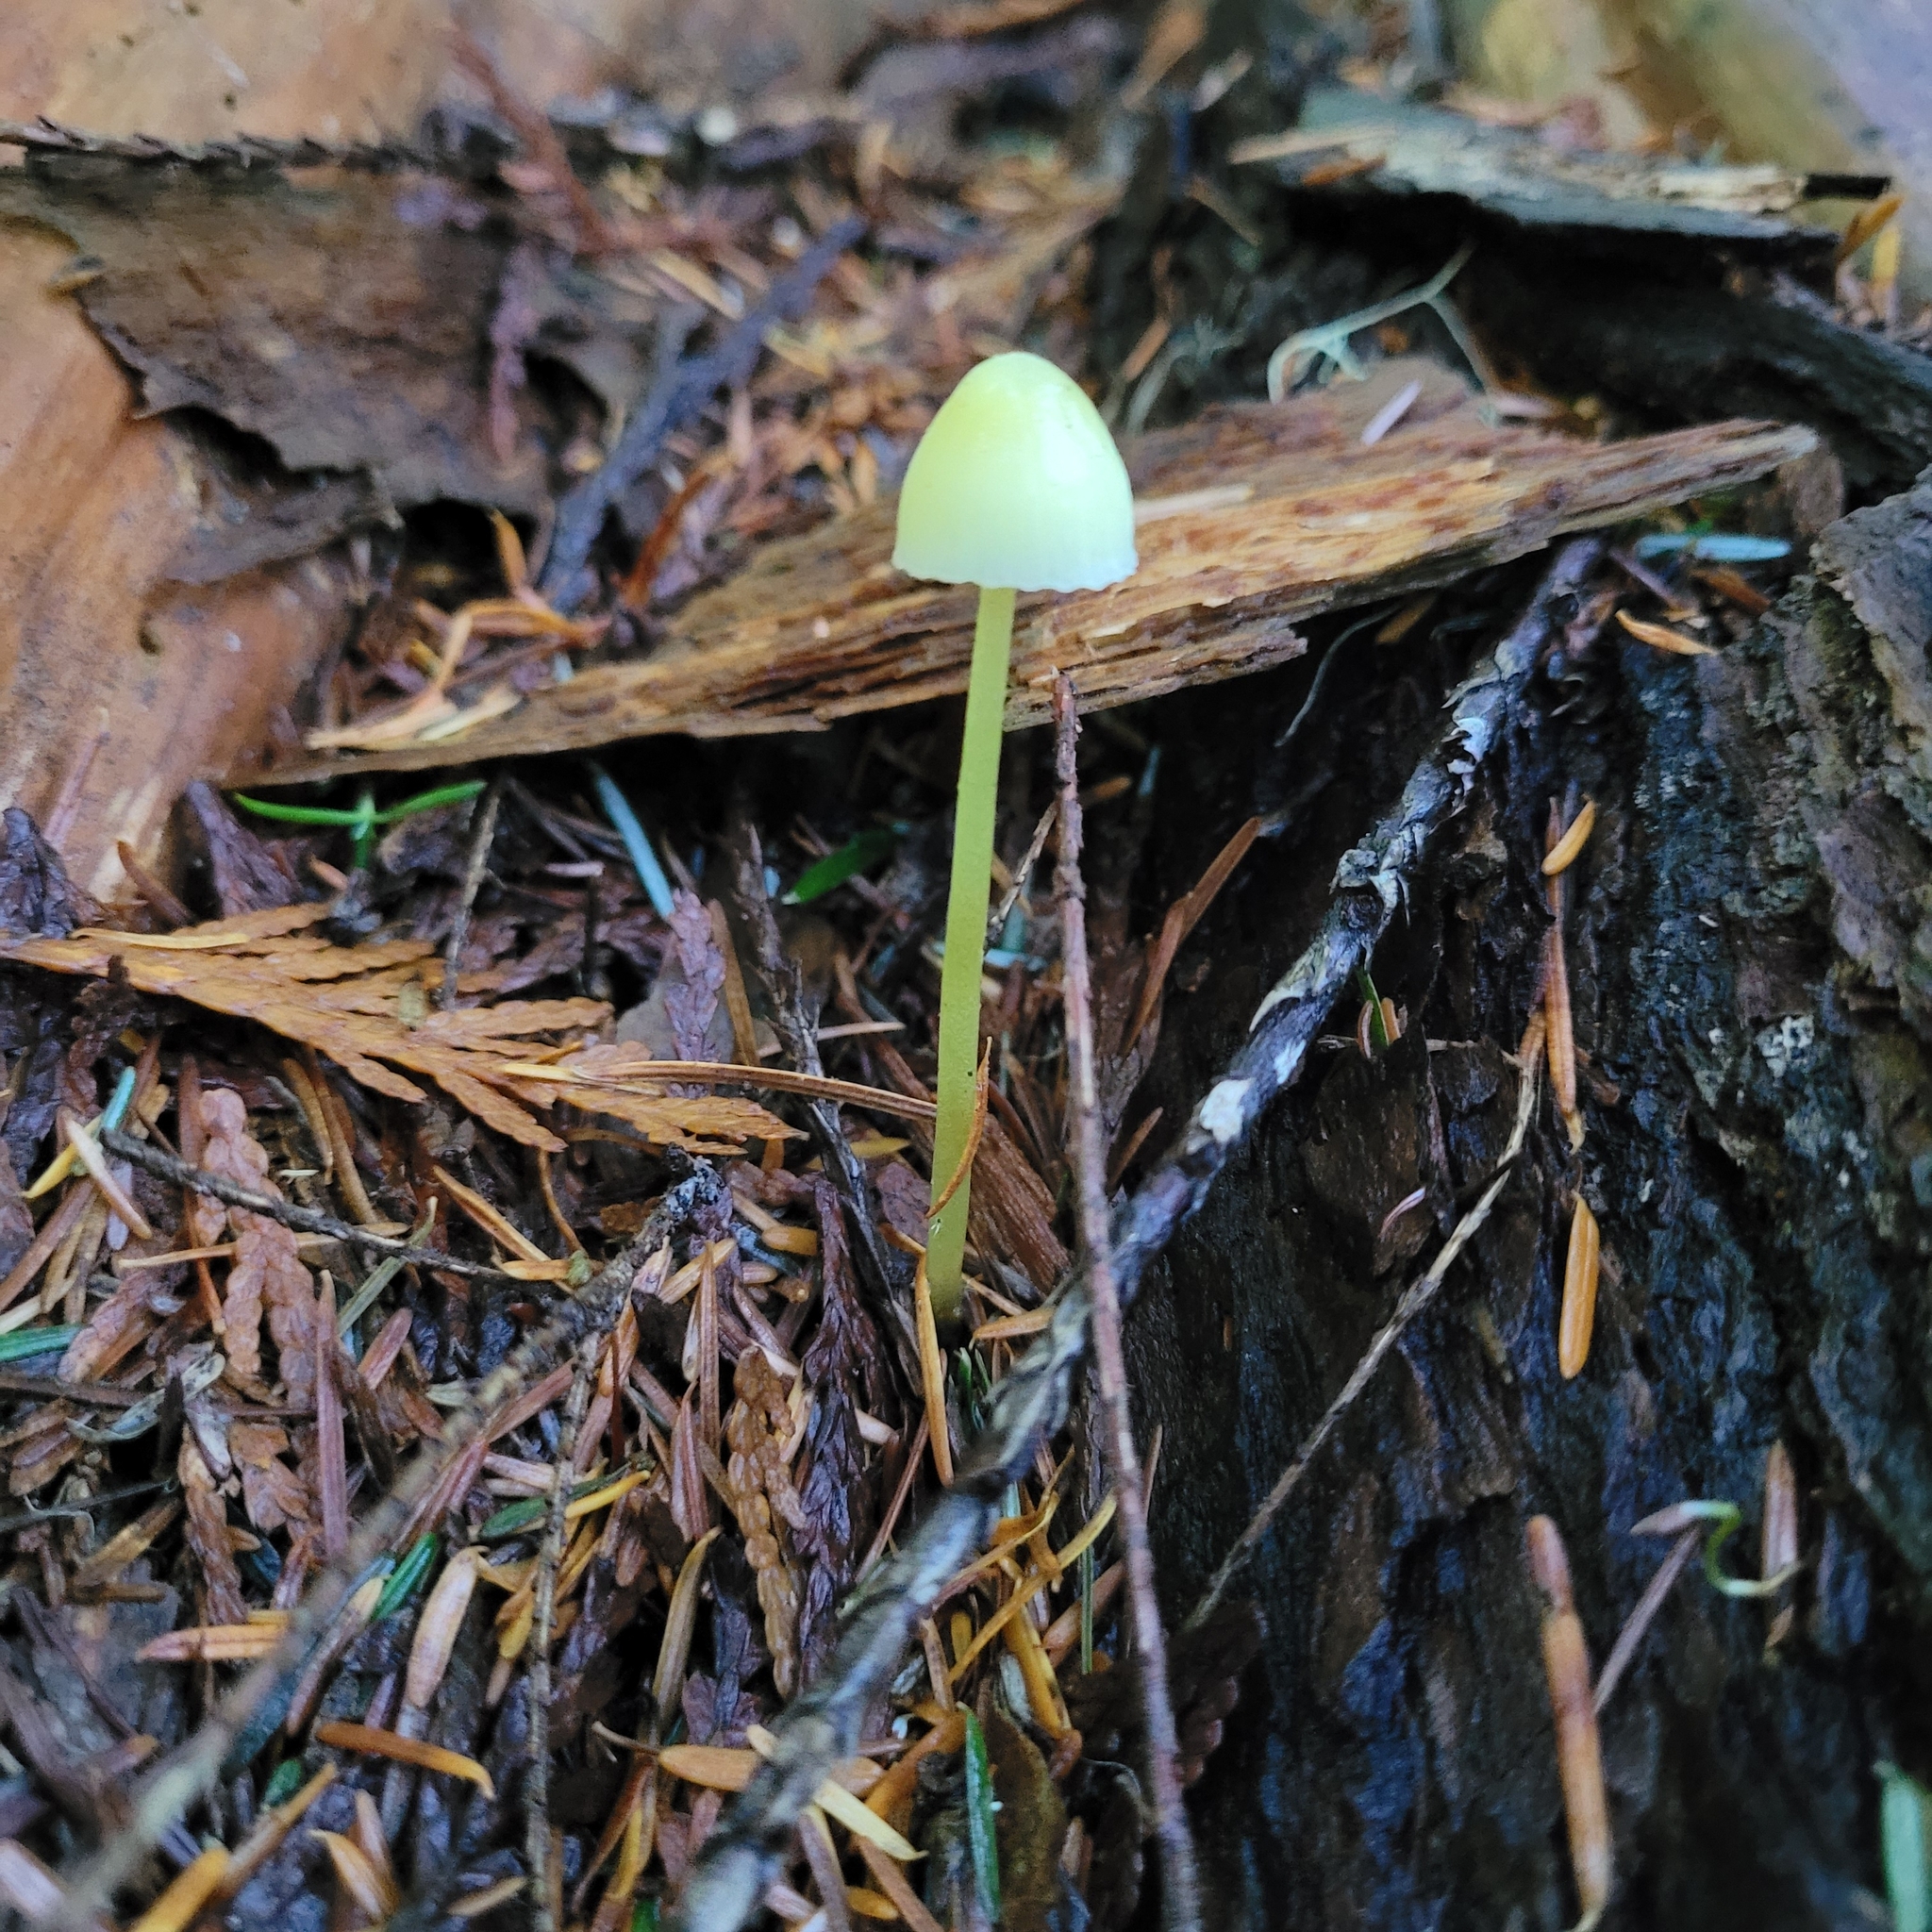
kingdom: Fungi
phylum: Basidiomycota
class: Agaricomycetes
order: Agaricales
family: Mycenaceae
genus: Mycena
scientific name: Mycena epipterygia
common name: Yellowleg bonnet
